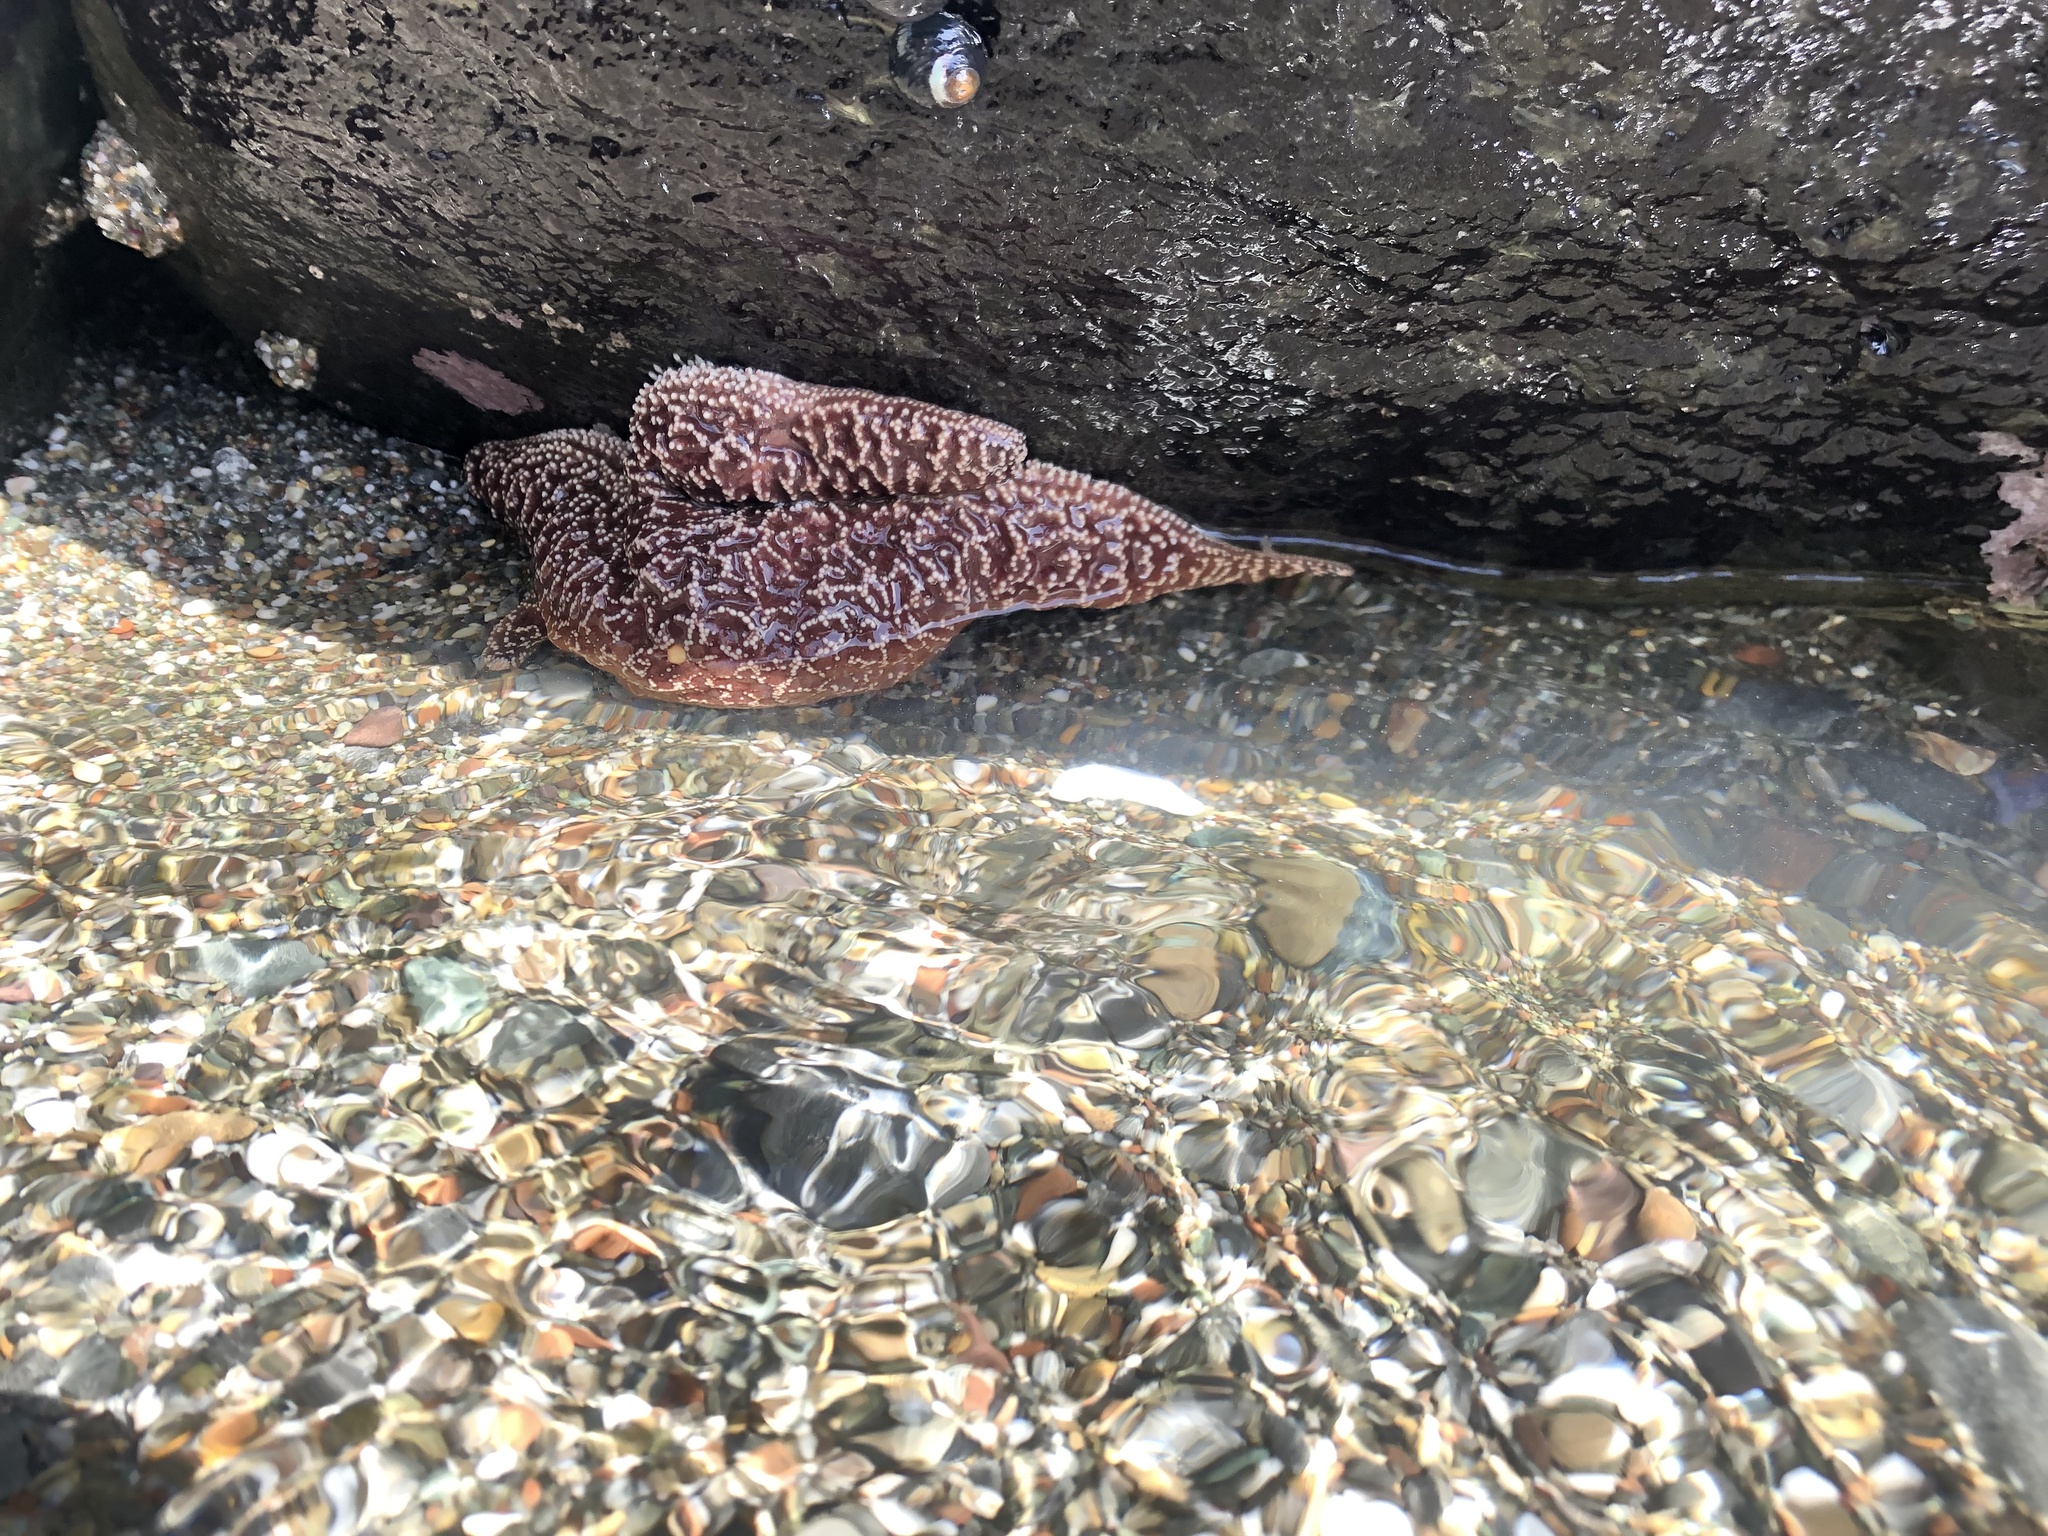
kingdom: Animalia
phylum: Echinodermata
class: Asteroidea
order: Forcipulatida
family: Asteriidae
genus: Pisaster
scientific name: Pisaster ochraceus
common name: Ochre stars
